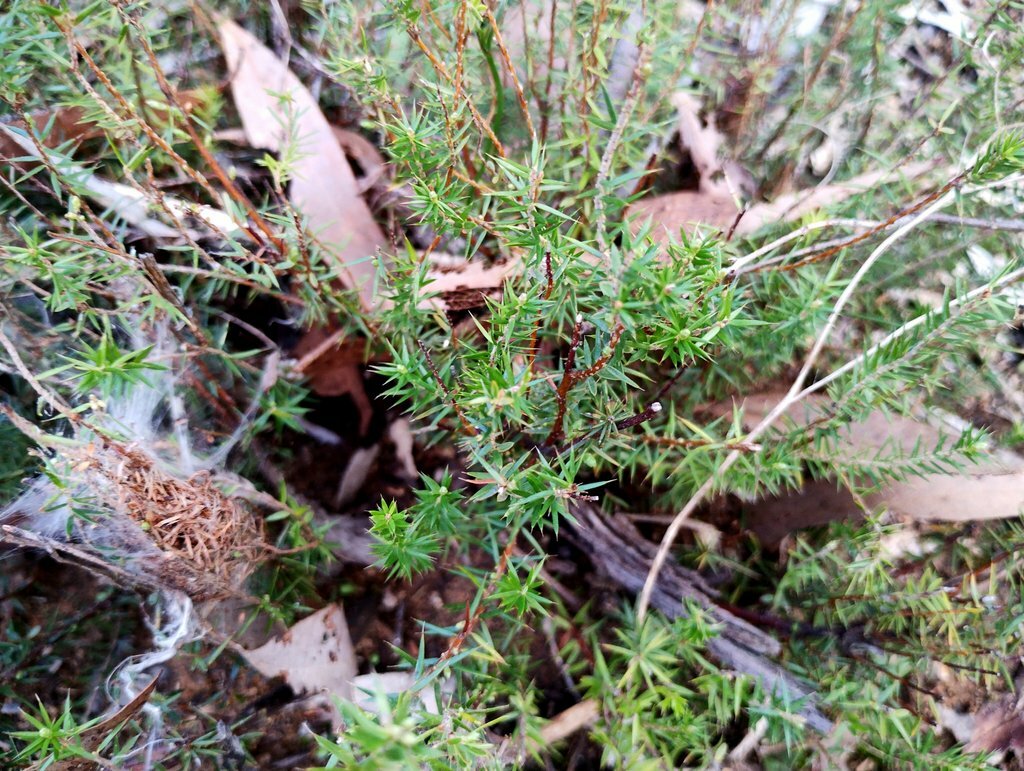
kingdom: Plantae
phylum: Tracheophyta
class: Magnoliopsida
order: Ericales
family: Ericaceae
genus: Acrotriche
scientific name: Acrotriche serrulata
